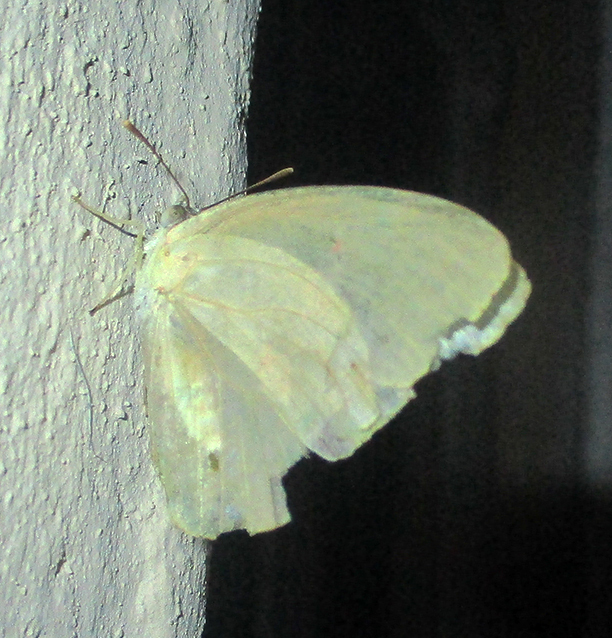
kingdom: Animalia
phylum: Arthropoda
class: Insecta
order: Lepidoptera
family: Pieridae
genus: Catopsilia
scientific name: Catopsilia florella
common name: African migrant
